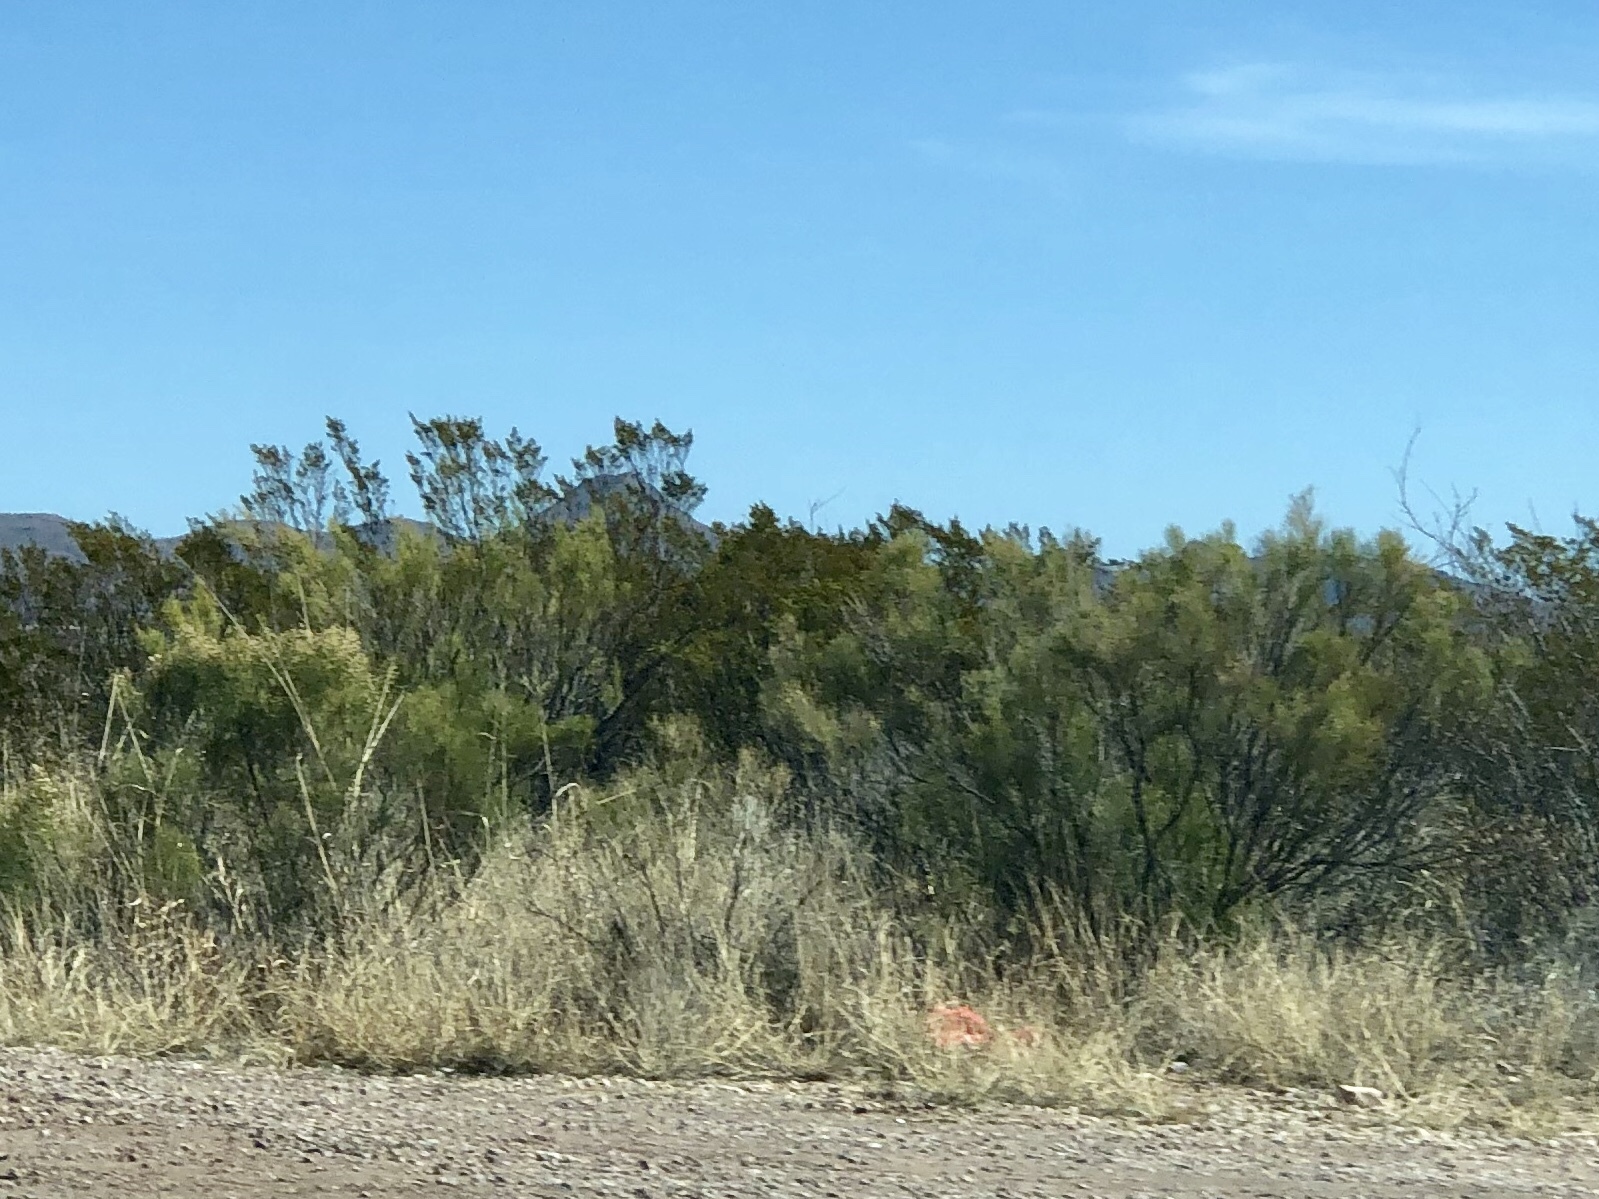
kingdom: Plantae
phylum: Tracheophyta
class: Magnoliopsida
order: Asterales
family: Asteraceae
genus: Baccharis
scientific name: Baccharis sarothroides
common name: Desert-broom
